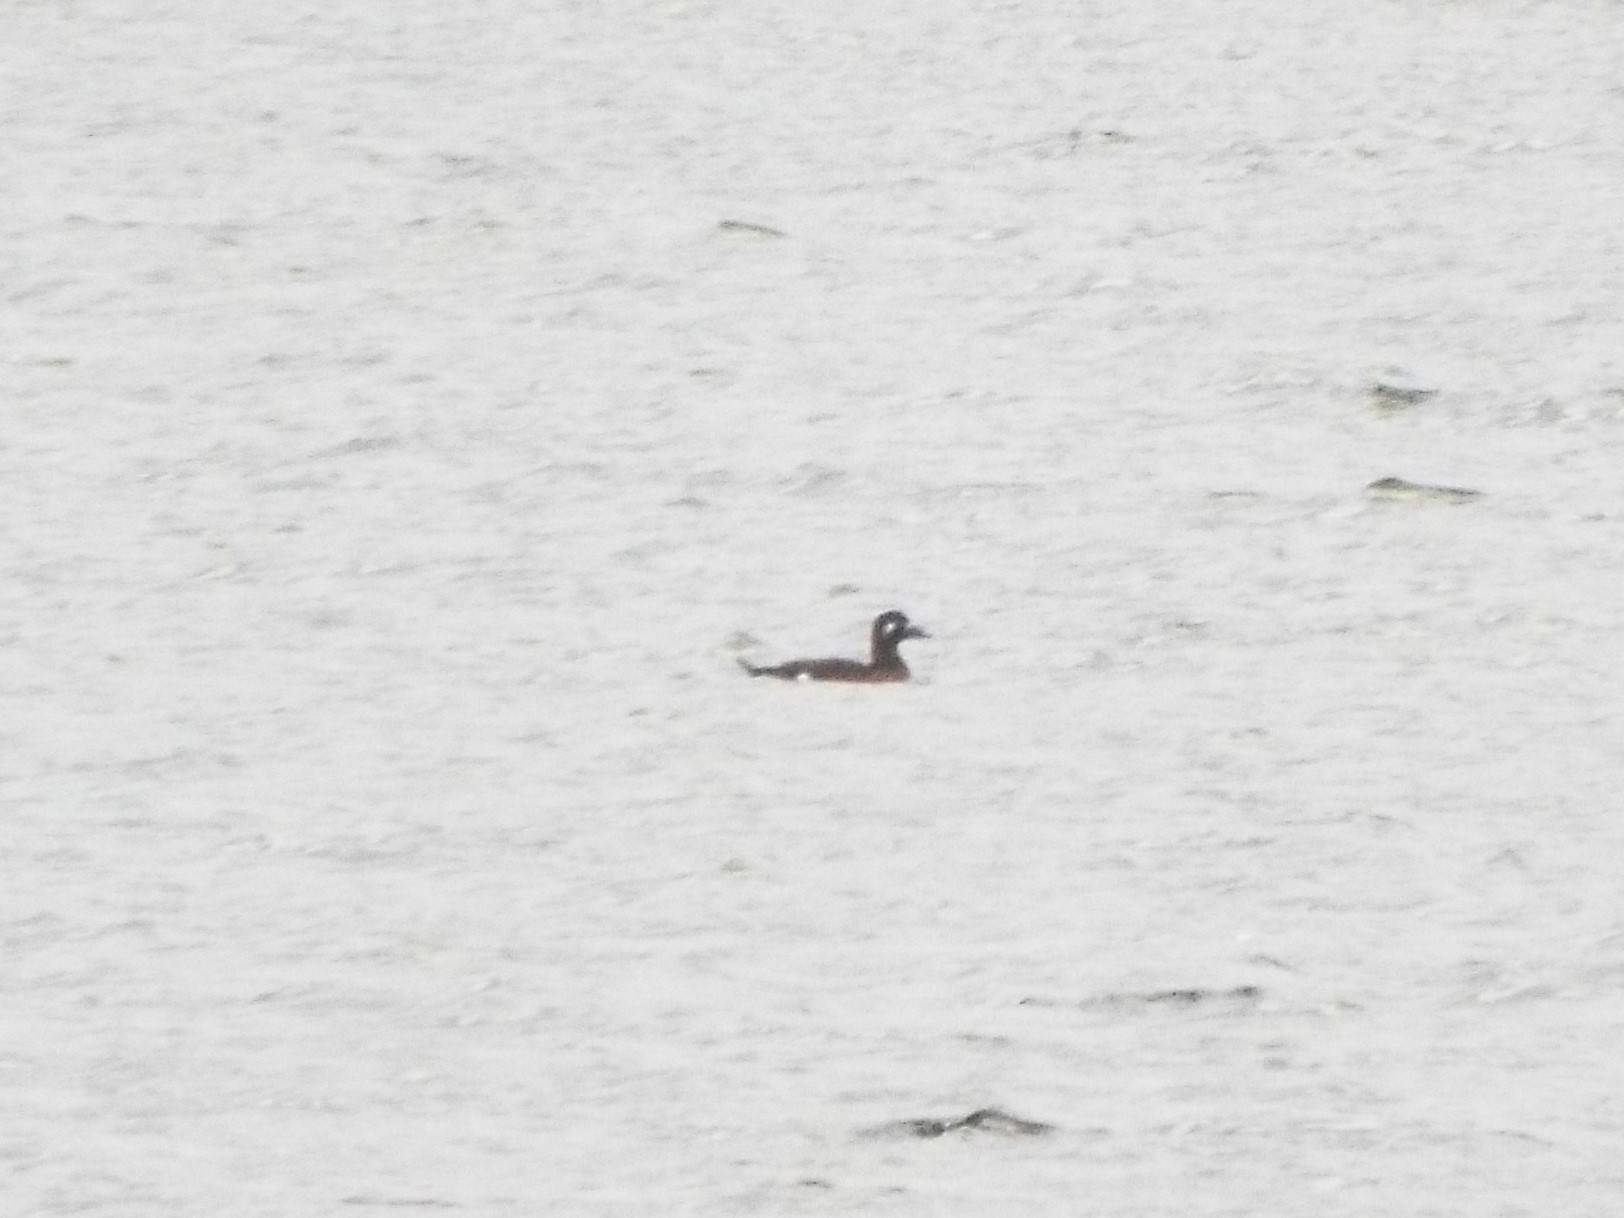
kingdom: Animalia
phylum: Chordata
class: Aves
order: Anseriformes
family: Anatidae
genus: Melanitta
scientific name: Melanitta deglandi
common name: White-winged scoter
